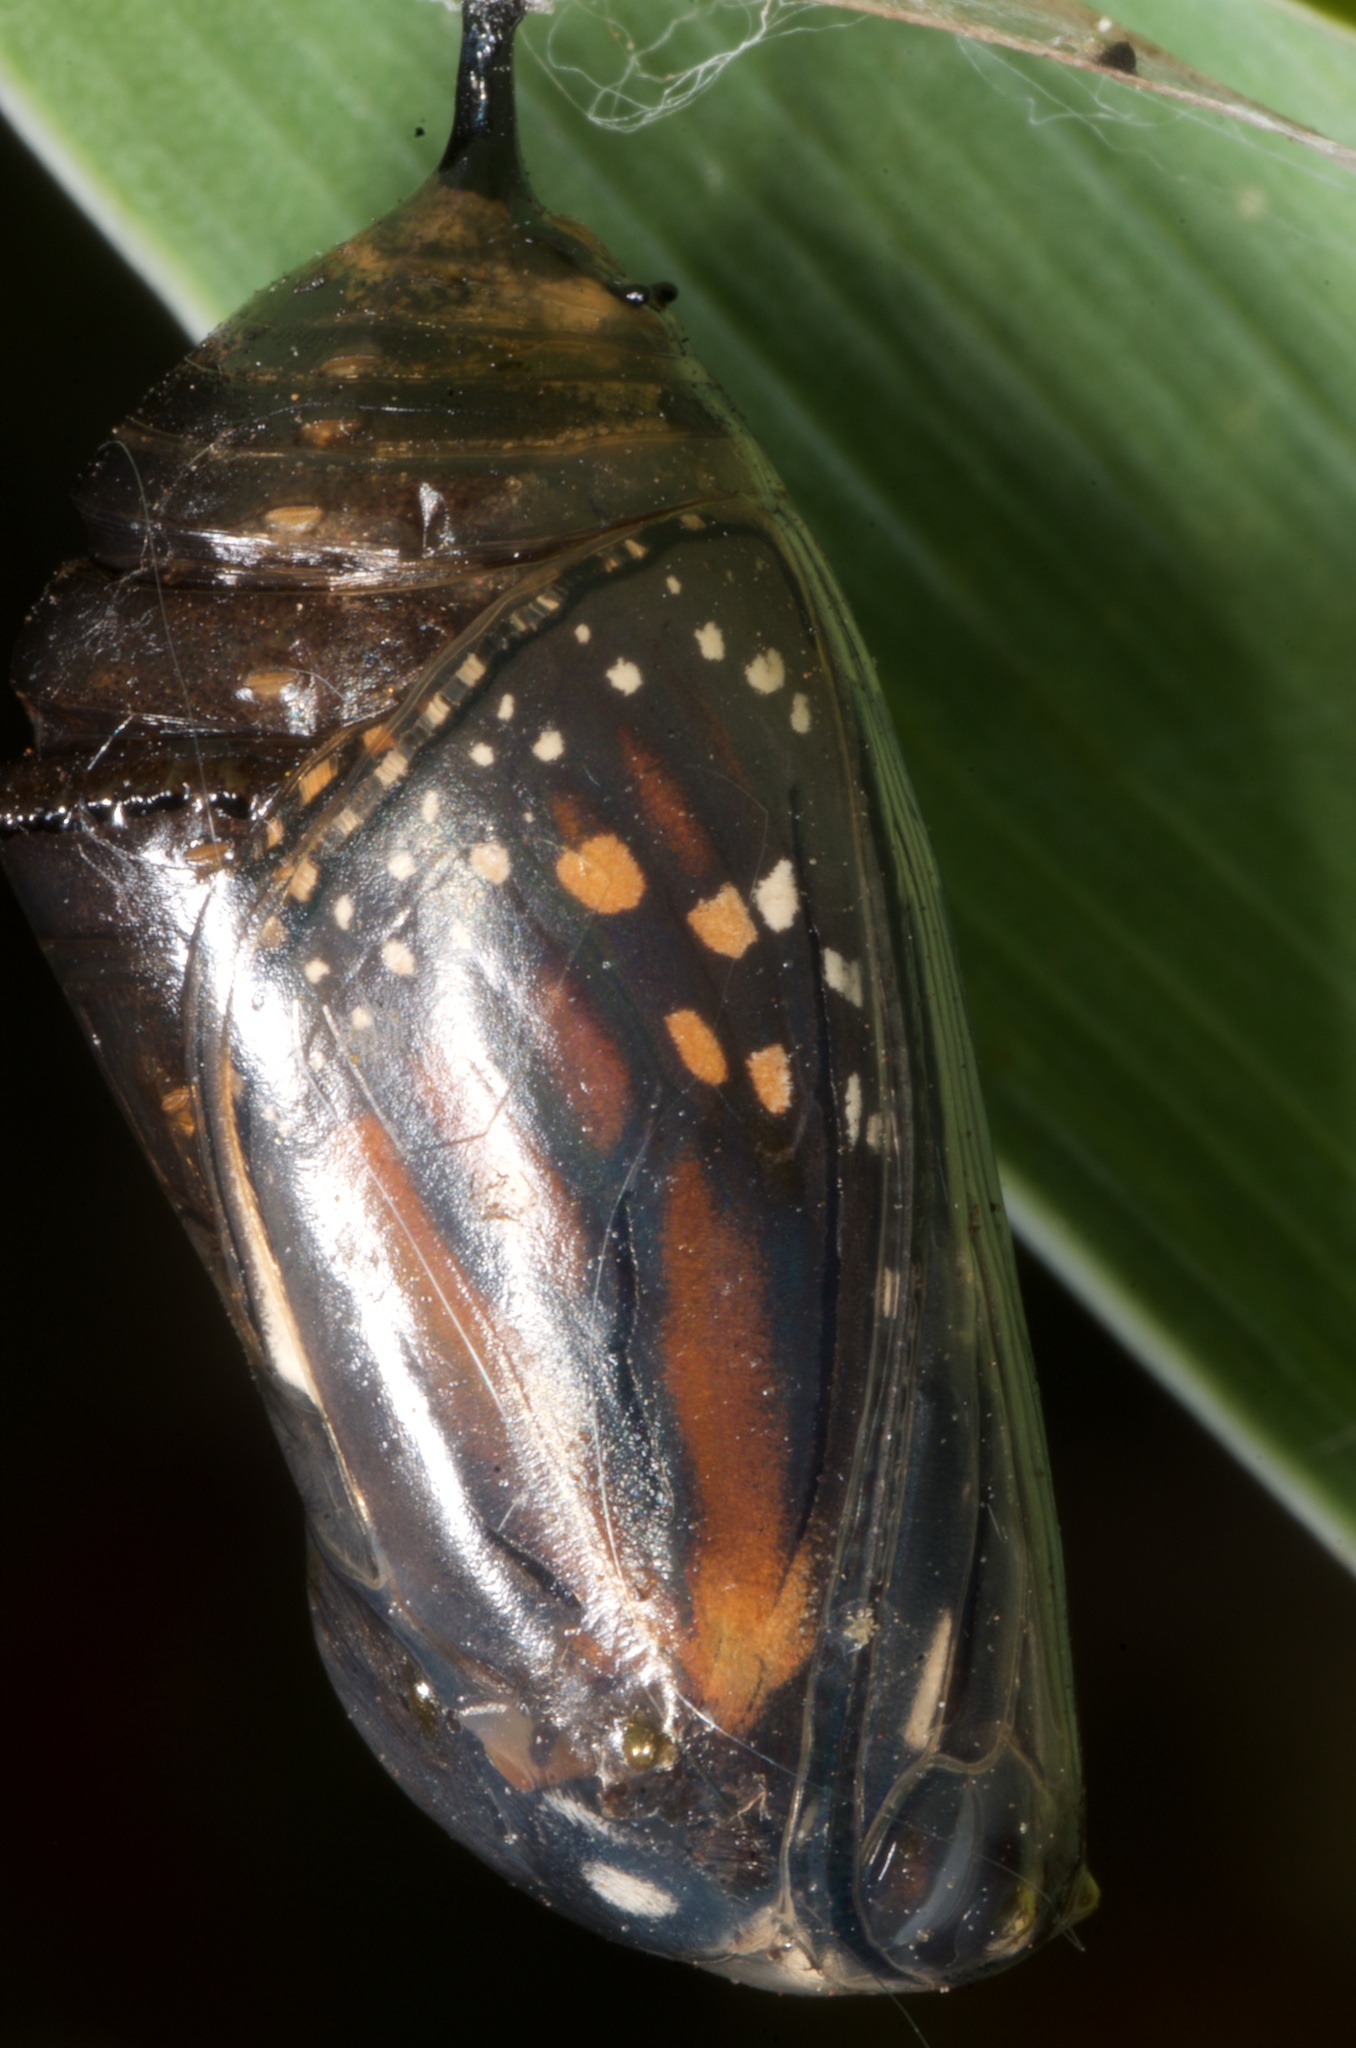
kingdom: Animalia
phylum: Arthropoda
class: Insecta
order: Lepidoptera
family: Nymphalidae
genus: Danaus
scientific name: Danaus plexippus
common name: Monarch
